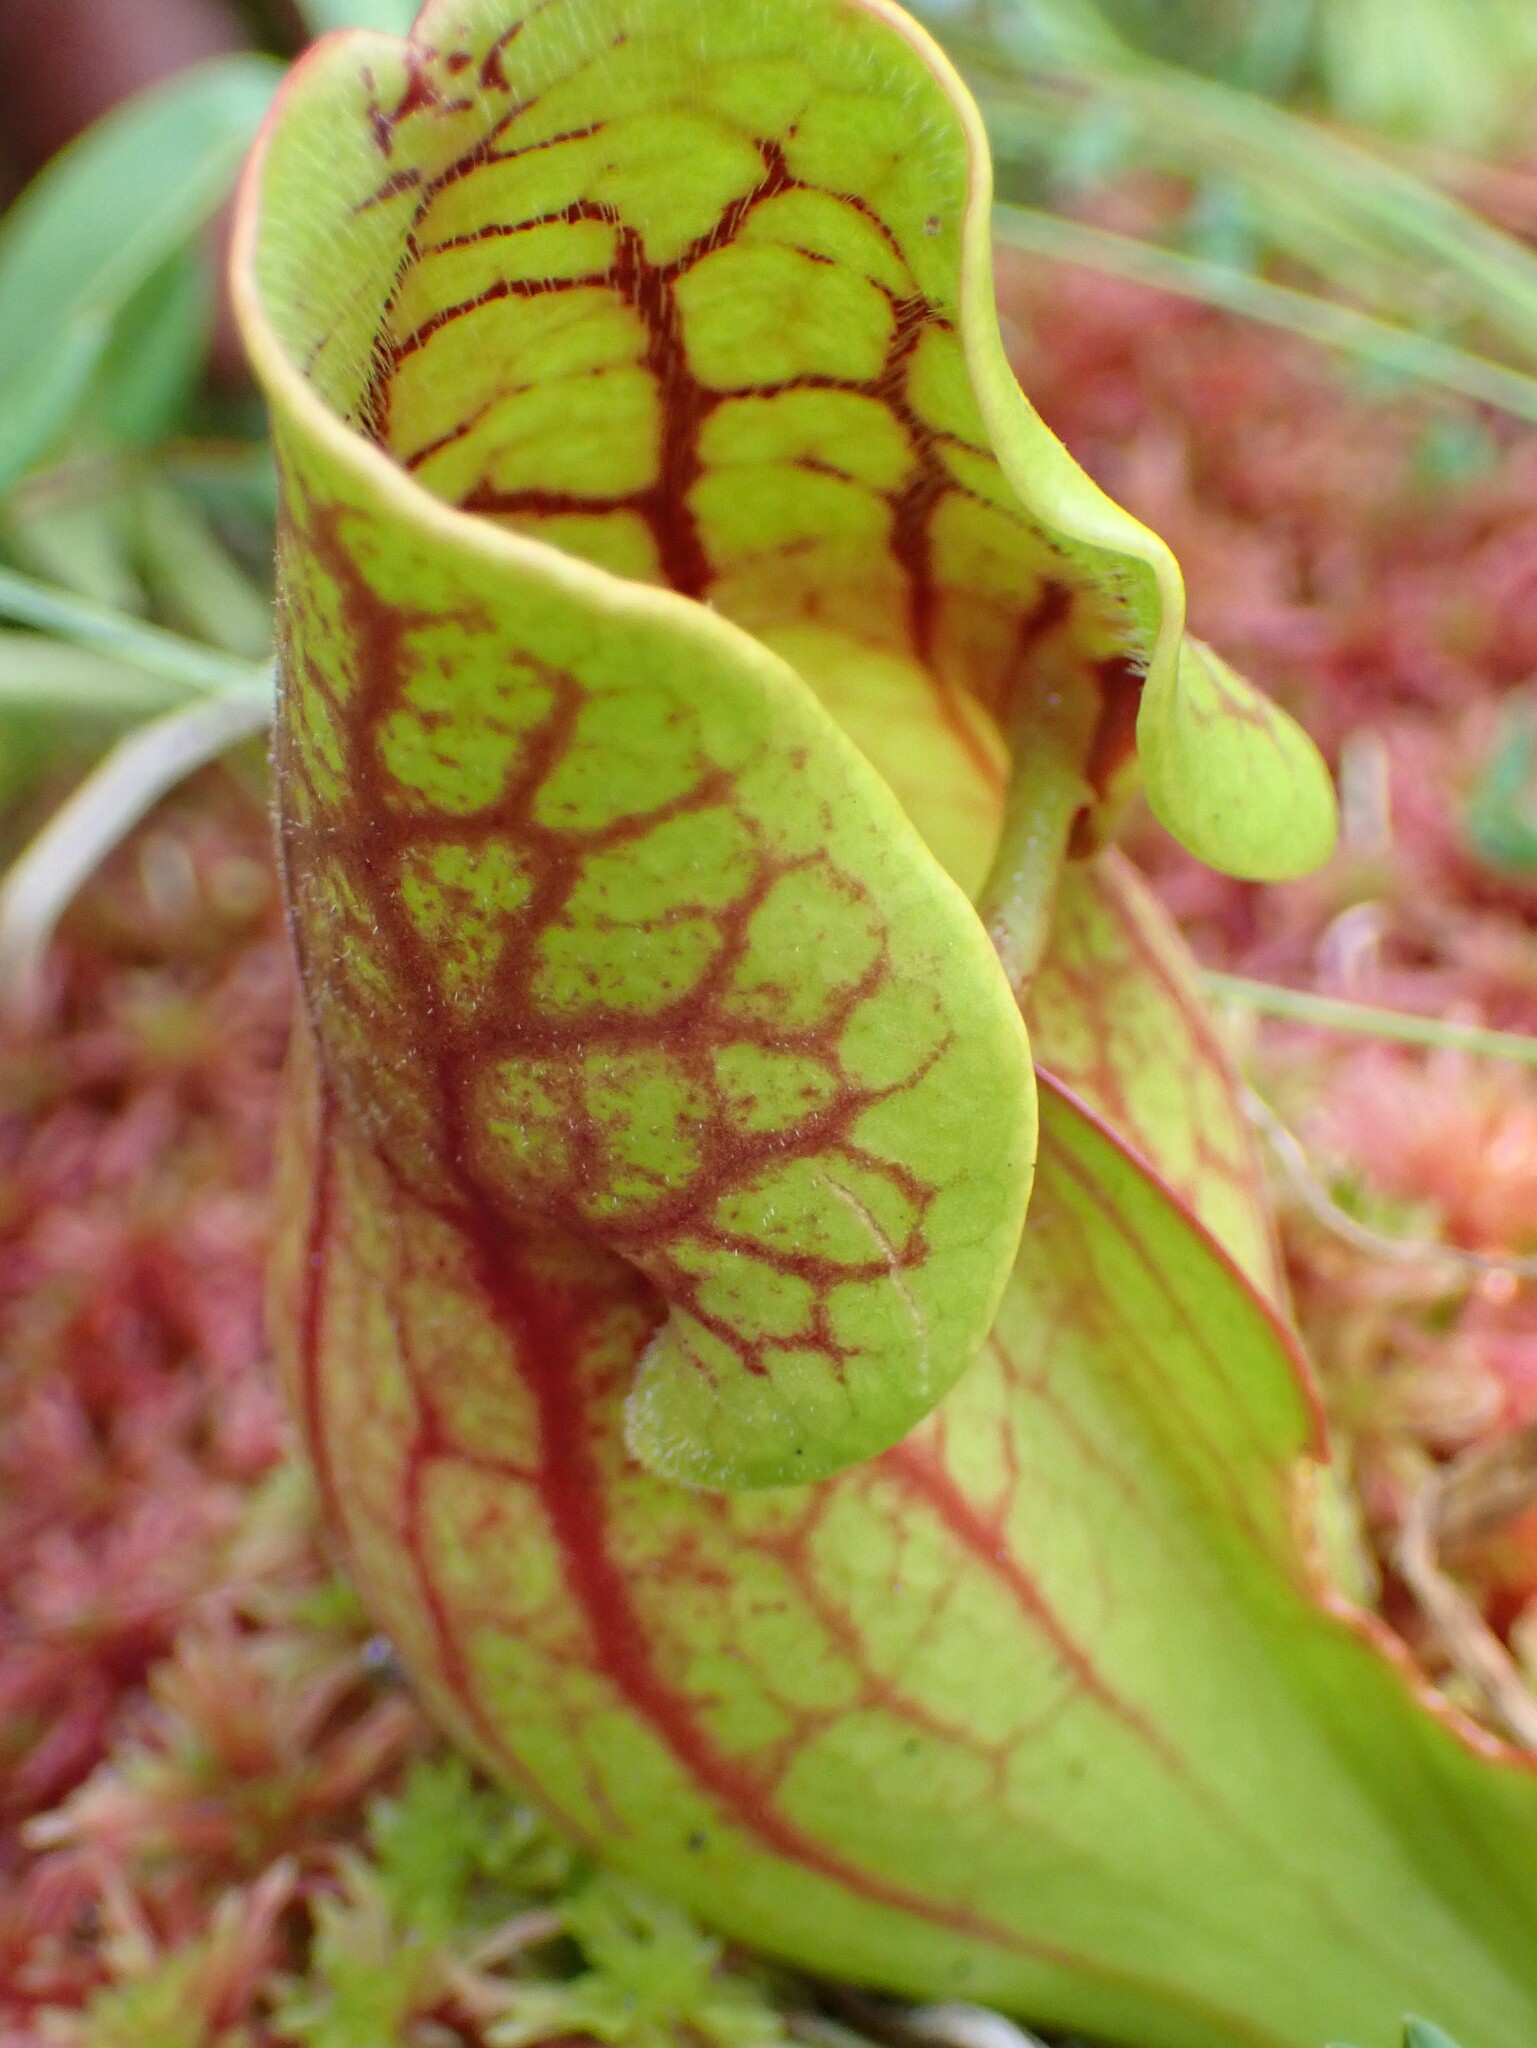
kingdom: Plantae
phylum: Tracheophyta
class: Magnoliopsida
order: Ericales
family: Sarraceniaceae
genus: Sarracenia
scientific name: Sarracenia purpurea
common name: Pitcherplant
